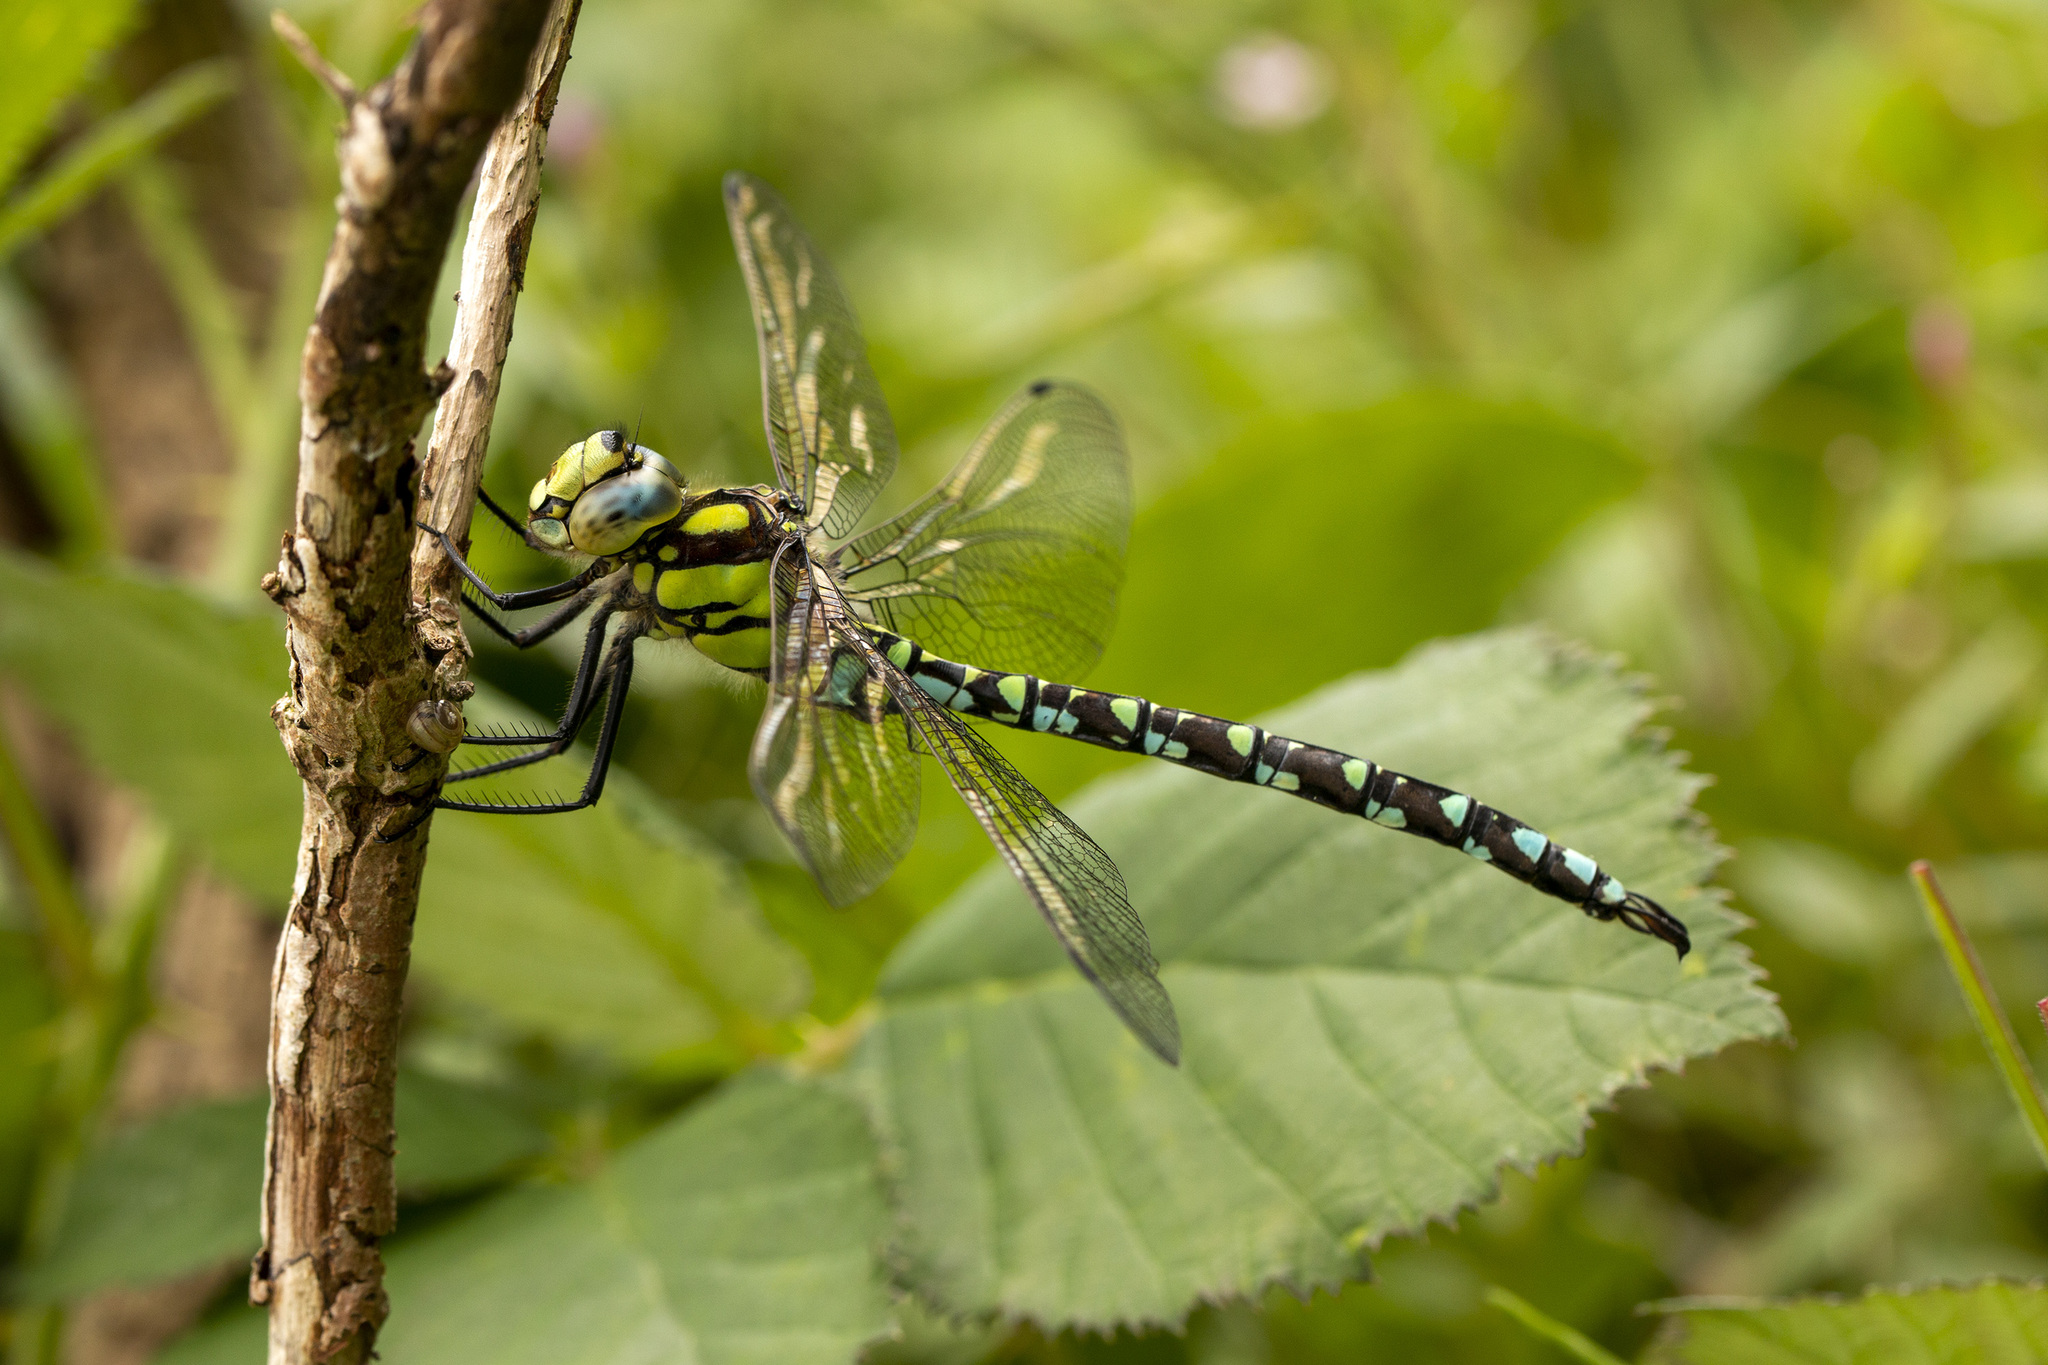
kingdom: Animalia
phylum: Arthropoda
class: Insecta
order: Odonata
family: Aeshnidae
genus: Aeshna
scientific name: Aeshna cyanea
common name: Southern hawker
